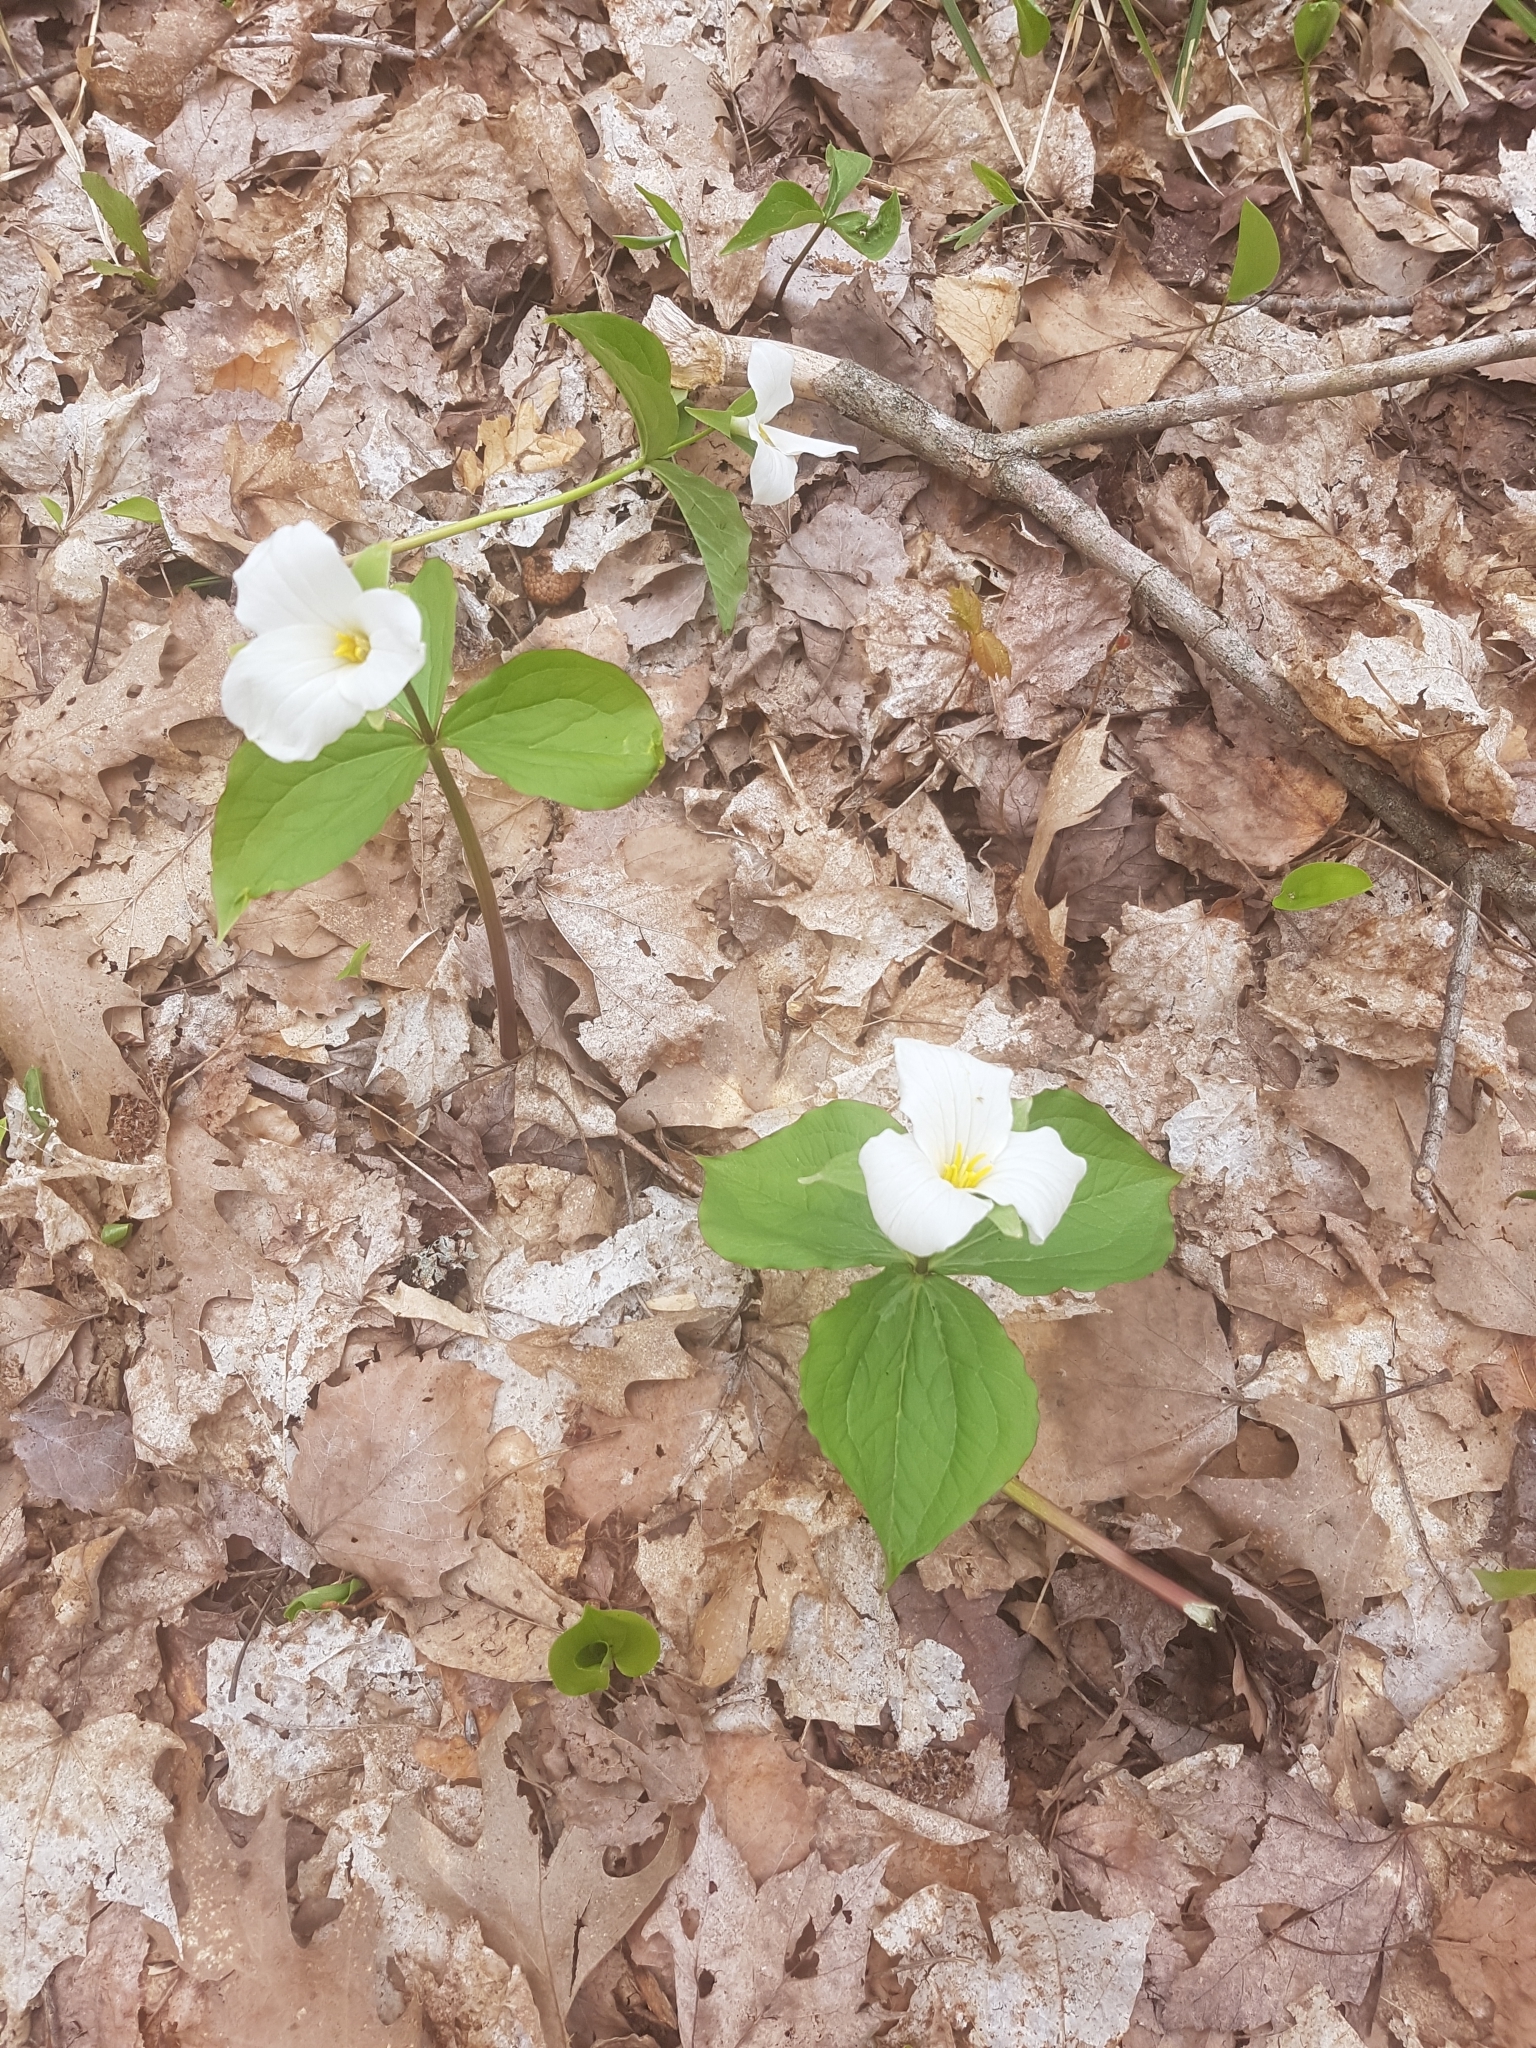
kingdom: Plantae
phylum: Tracheophyta
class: Liliopsida
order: Liliales
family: Melanthiaceae
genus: Trillium
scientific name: Trillium grandiflorum
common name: Great white trillium
